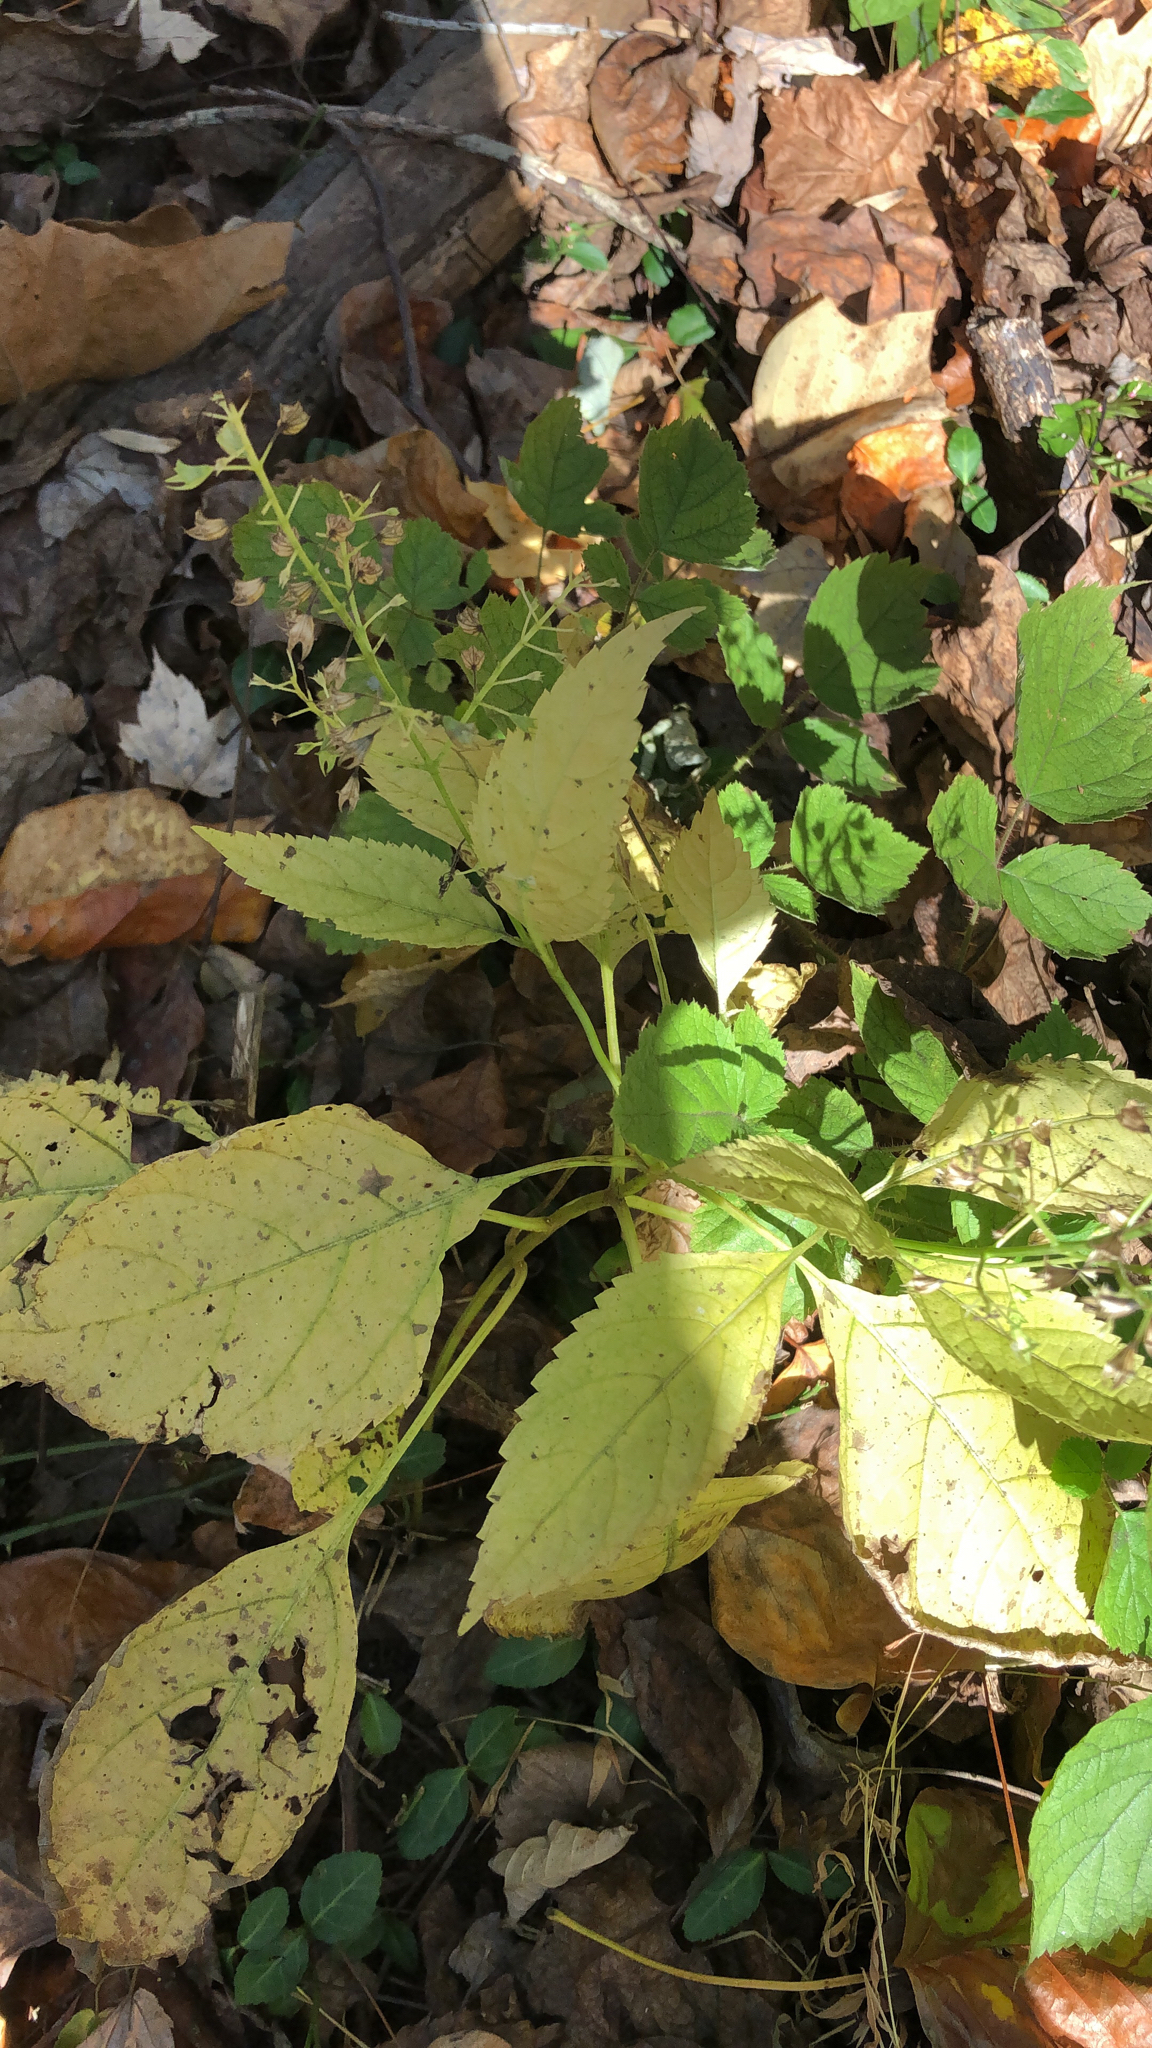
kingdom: Plantae
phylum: Tracheophyta
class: Magnoliopsida
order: Lamiales
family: Lamiaceae
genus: Collinsonia
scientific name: Collinsonia canadensis
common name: Northern horsebalm
